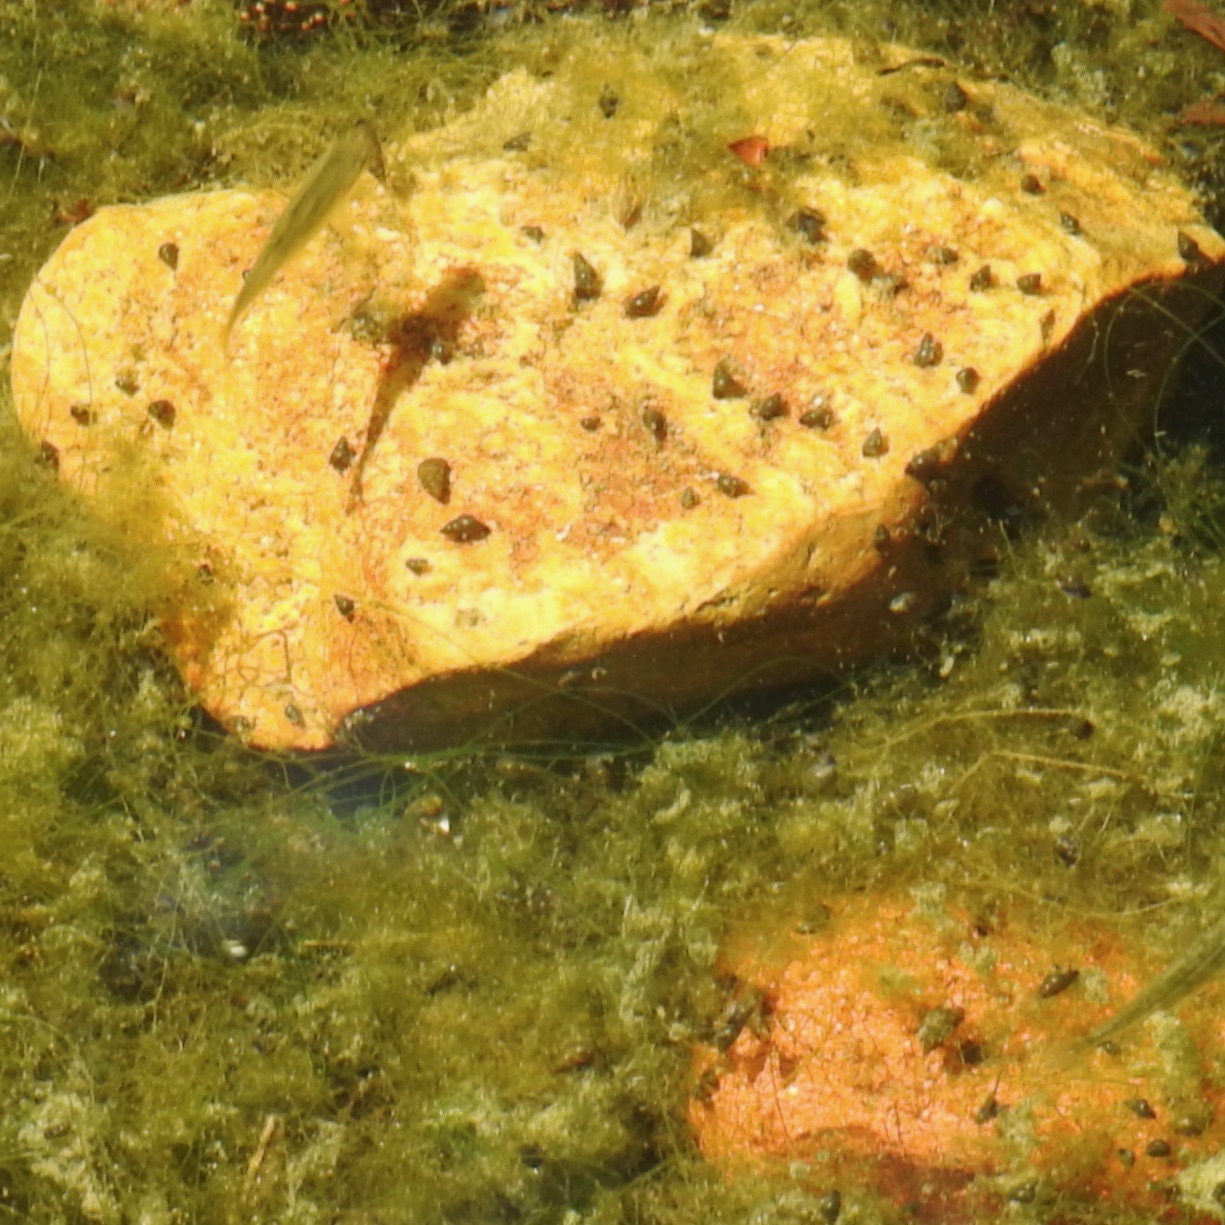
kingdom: Animalia
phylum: Mollusca
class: Gastropoda
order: Littorinimorpha
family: Tateidae
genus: Potamopyrgus
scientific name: Potamopyrgus antipodarum
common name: Jenkins' spire snail
